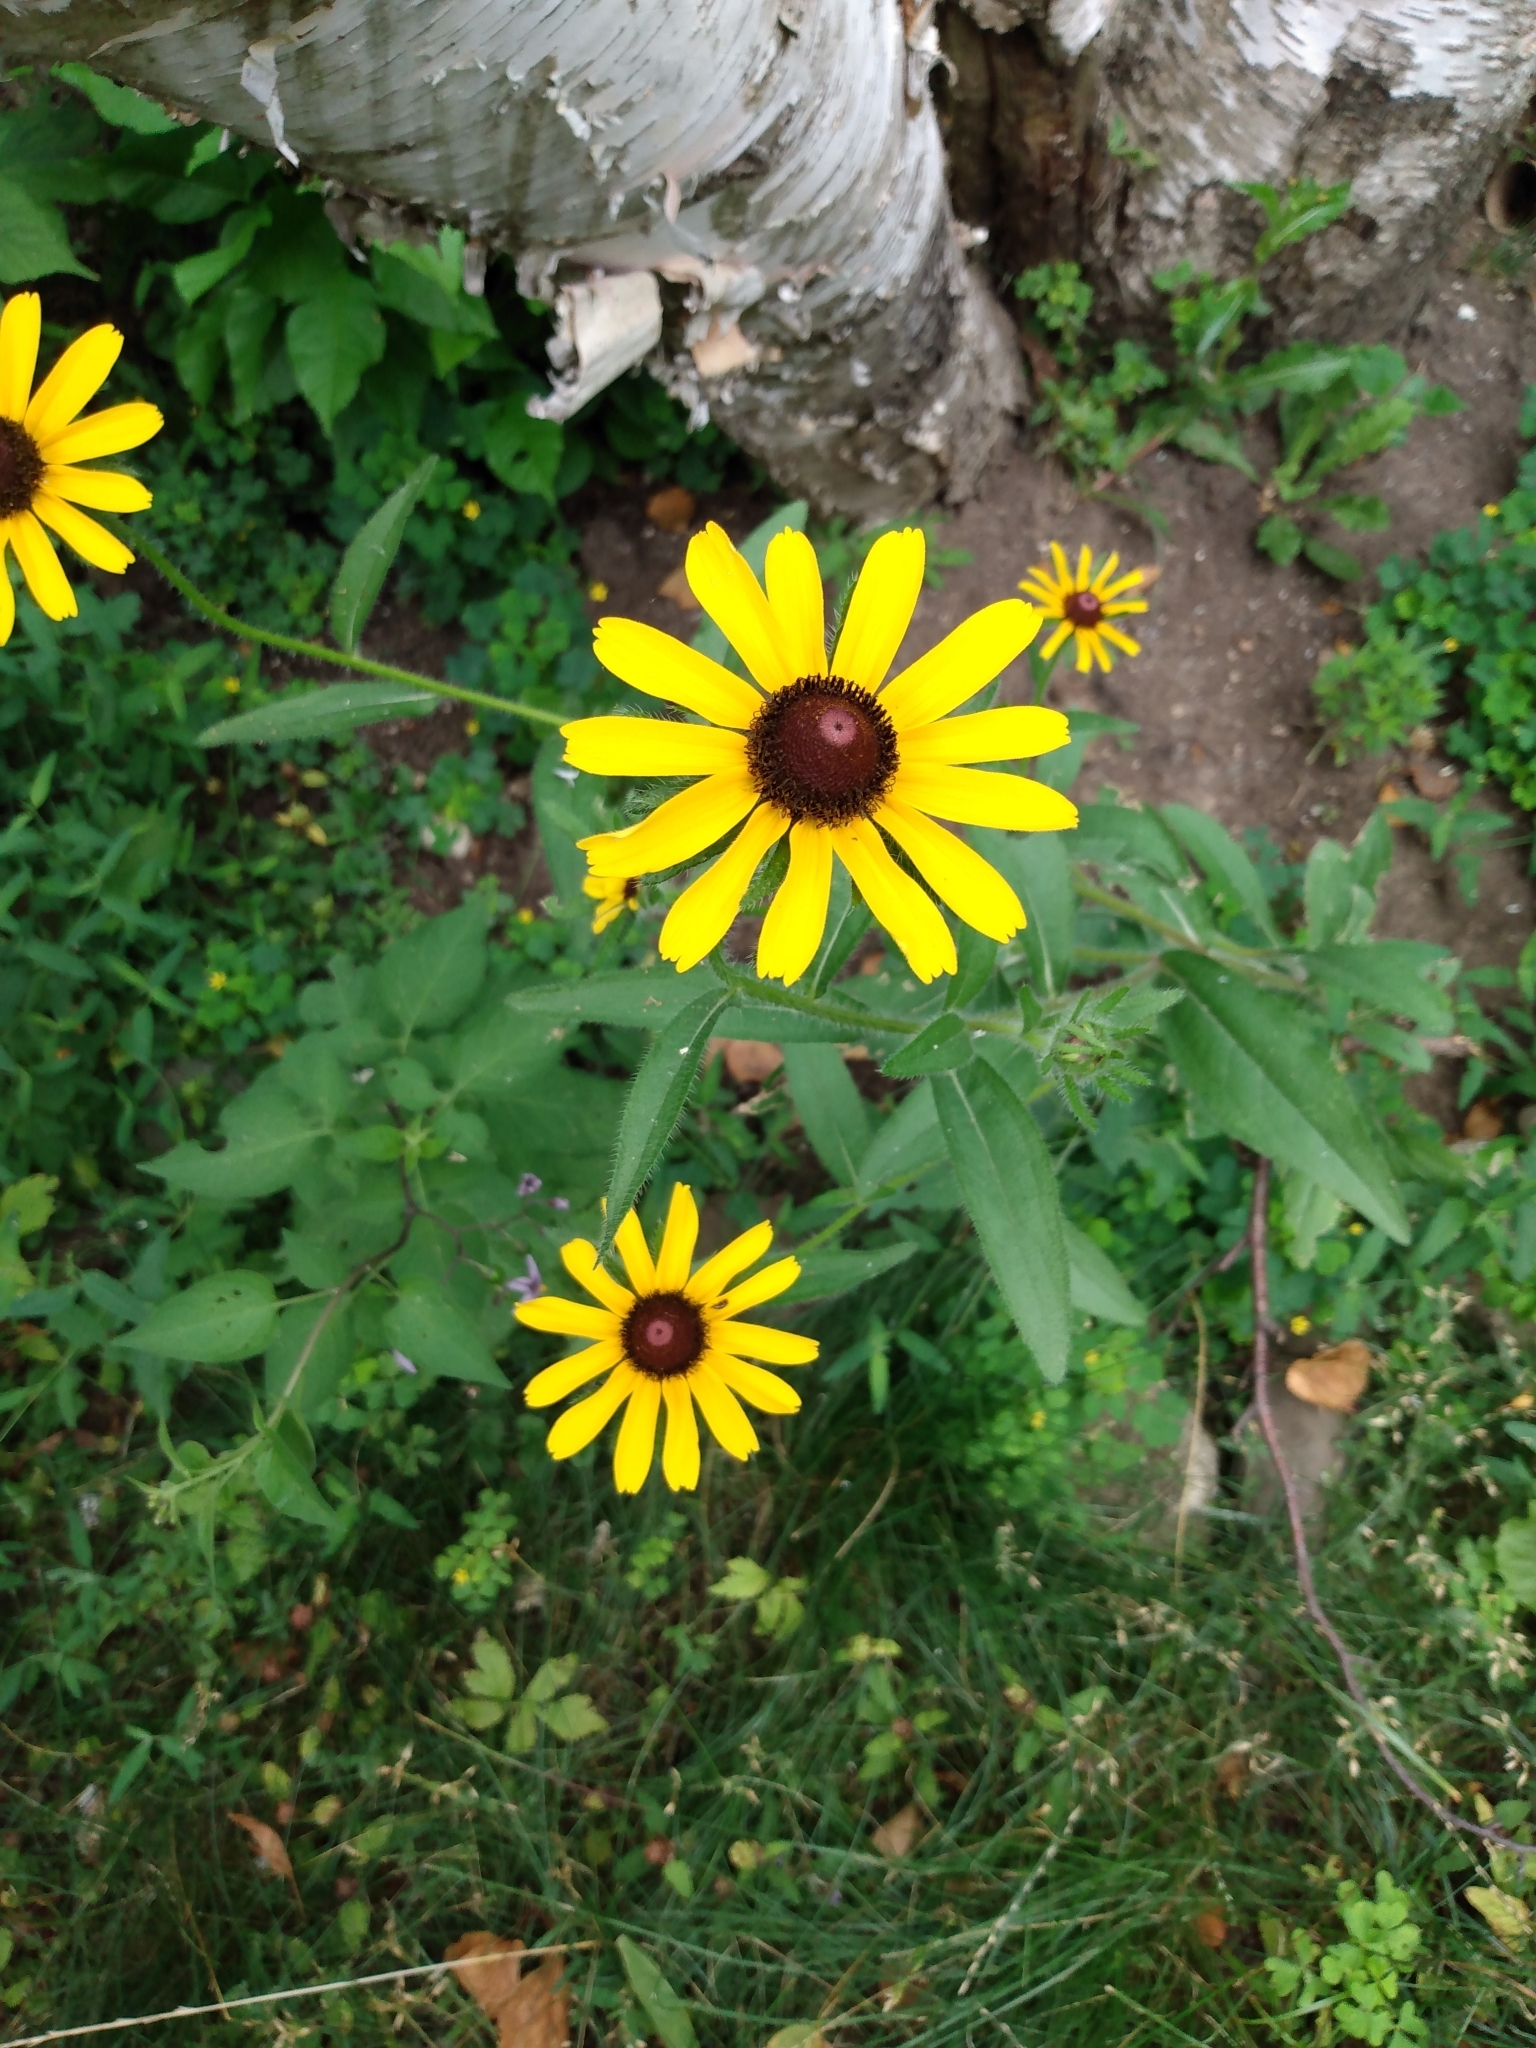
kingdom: Plantae
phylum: Tracheophyta
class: Magnoliopsida
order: Asterales
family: Asteraceae
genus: Rudbeckia
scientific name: Rudbeckia hirta
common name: Black-eyed-susan
